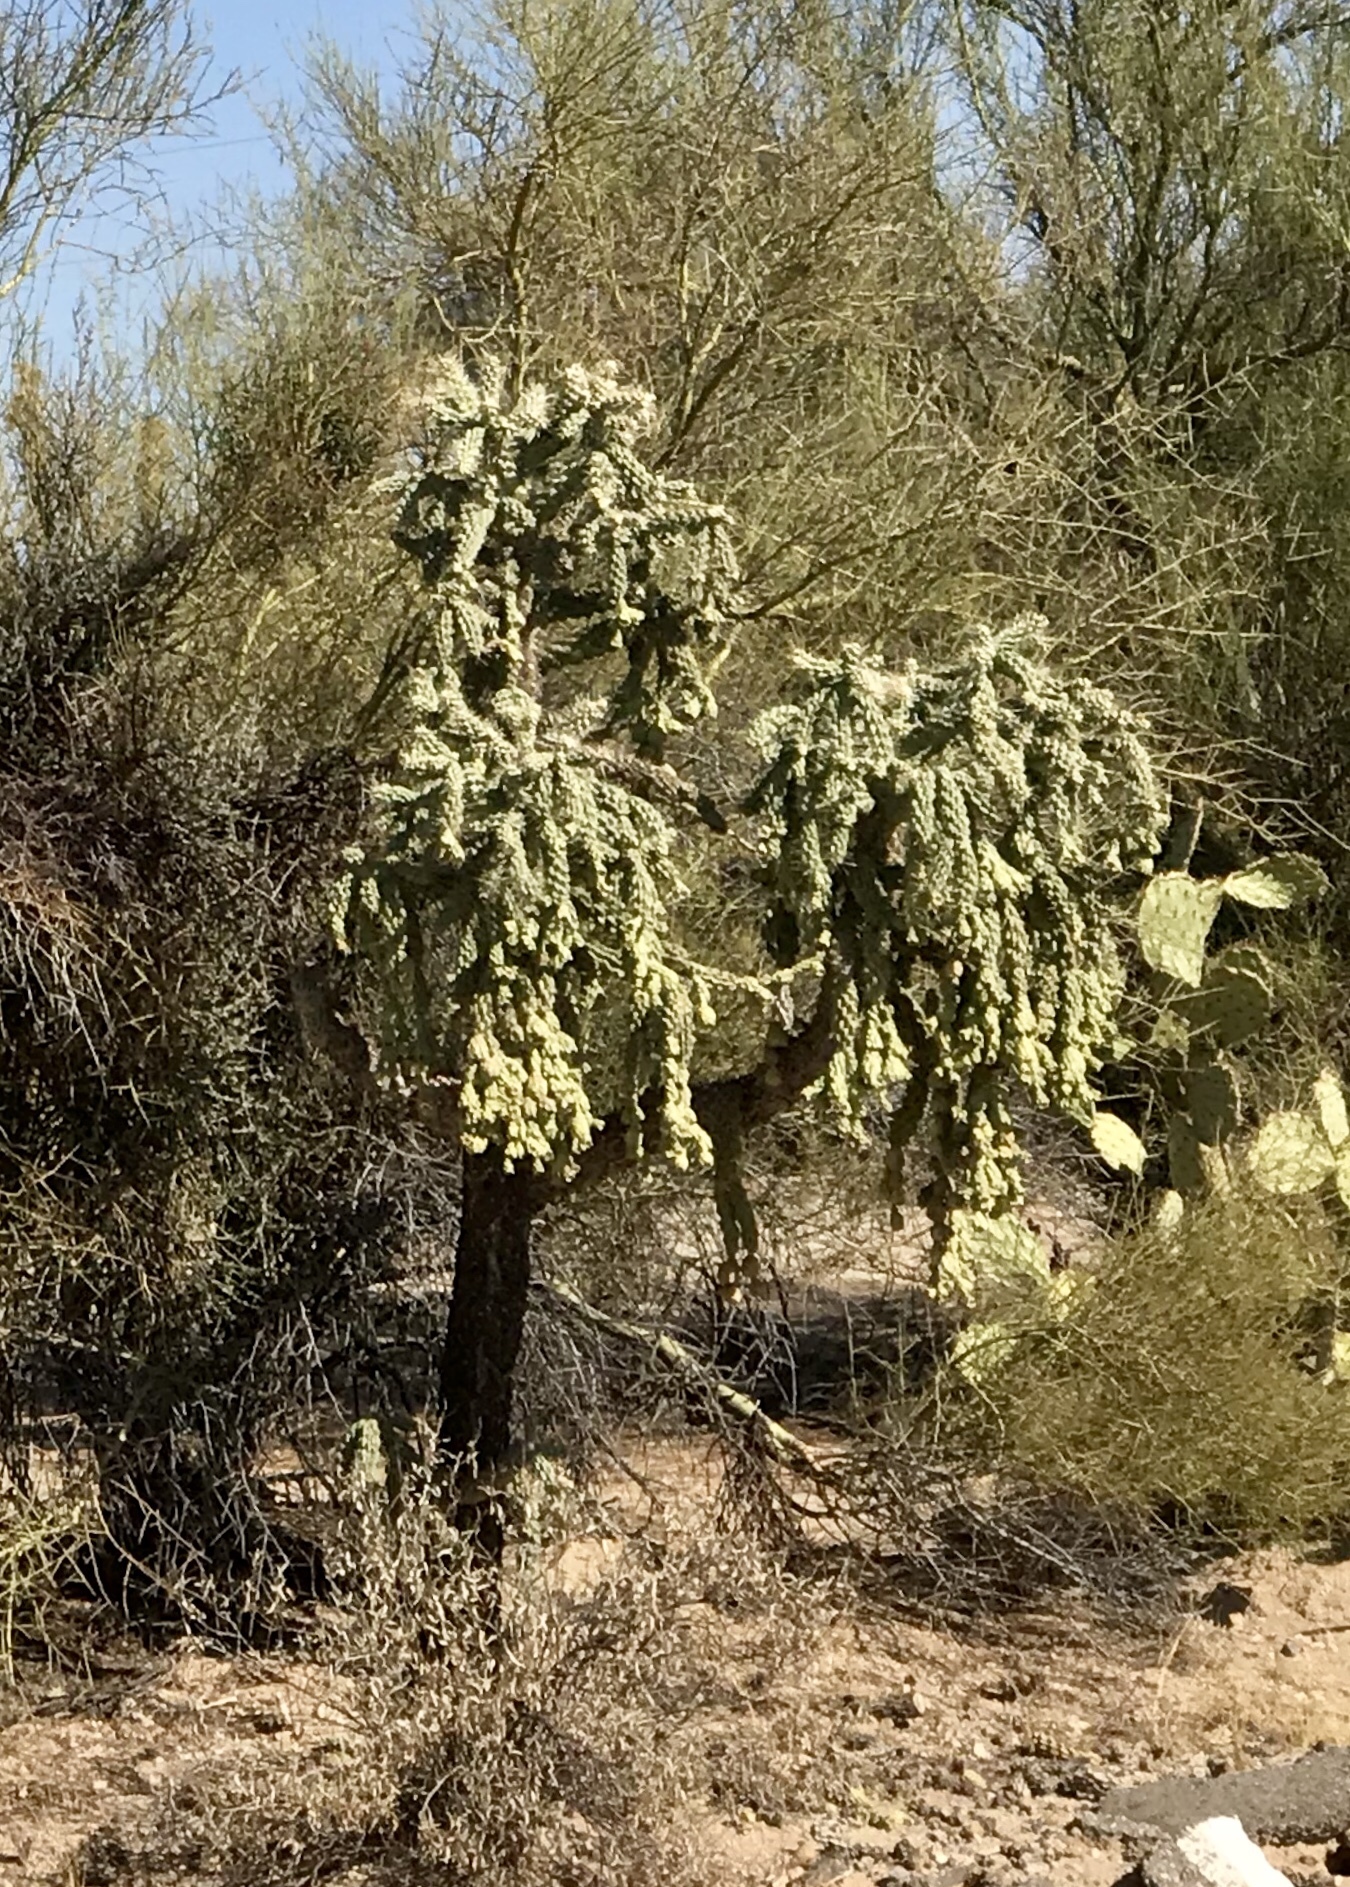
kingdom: Plantae
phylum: Tracheophyta
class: Magnoliopsida
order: Caryophyllales
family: Cactaceae
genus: Cylindropuntia
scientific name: Cylindropuntia fulgida
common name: Jumping cholla
